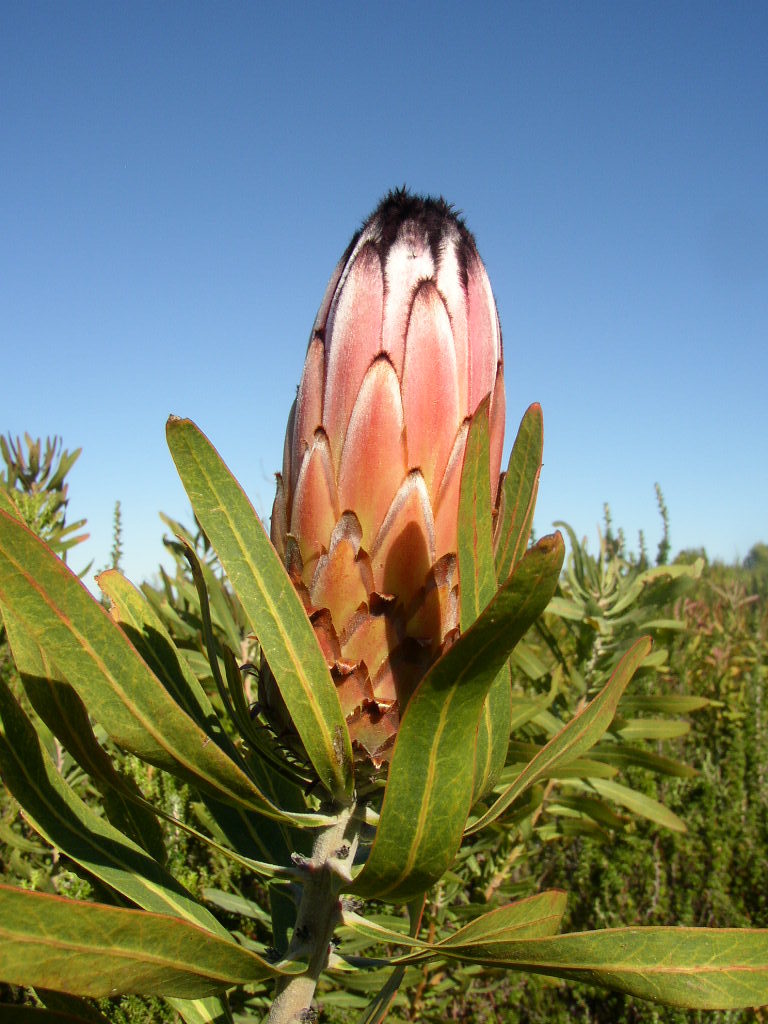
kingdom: Plantae
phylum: Tracheophyta
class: Magnoliopsida
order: Proteales
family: Proteaceae
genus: Protea
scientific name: Protea neriifolia
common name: Blue sugarbush
